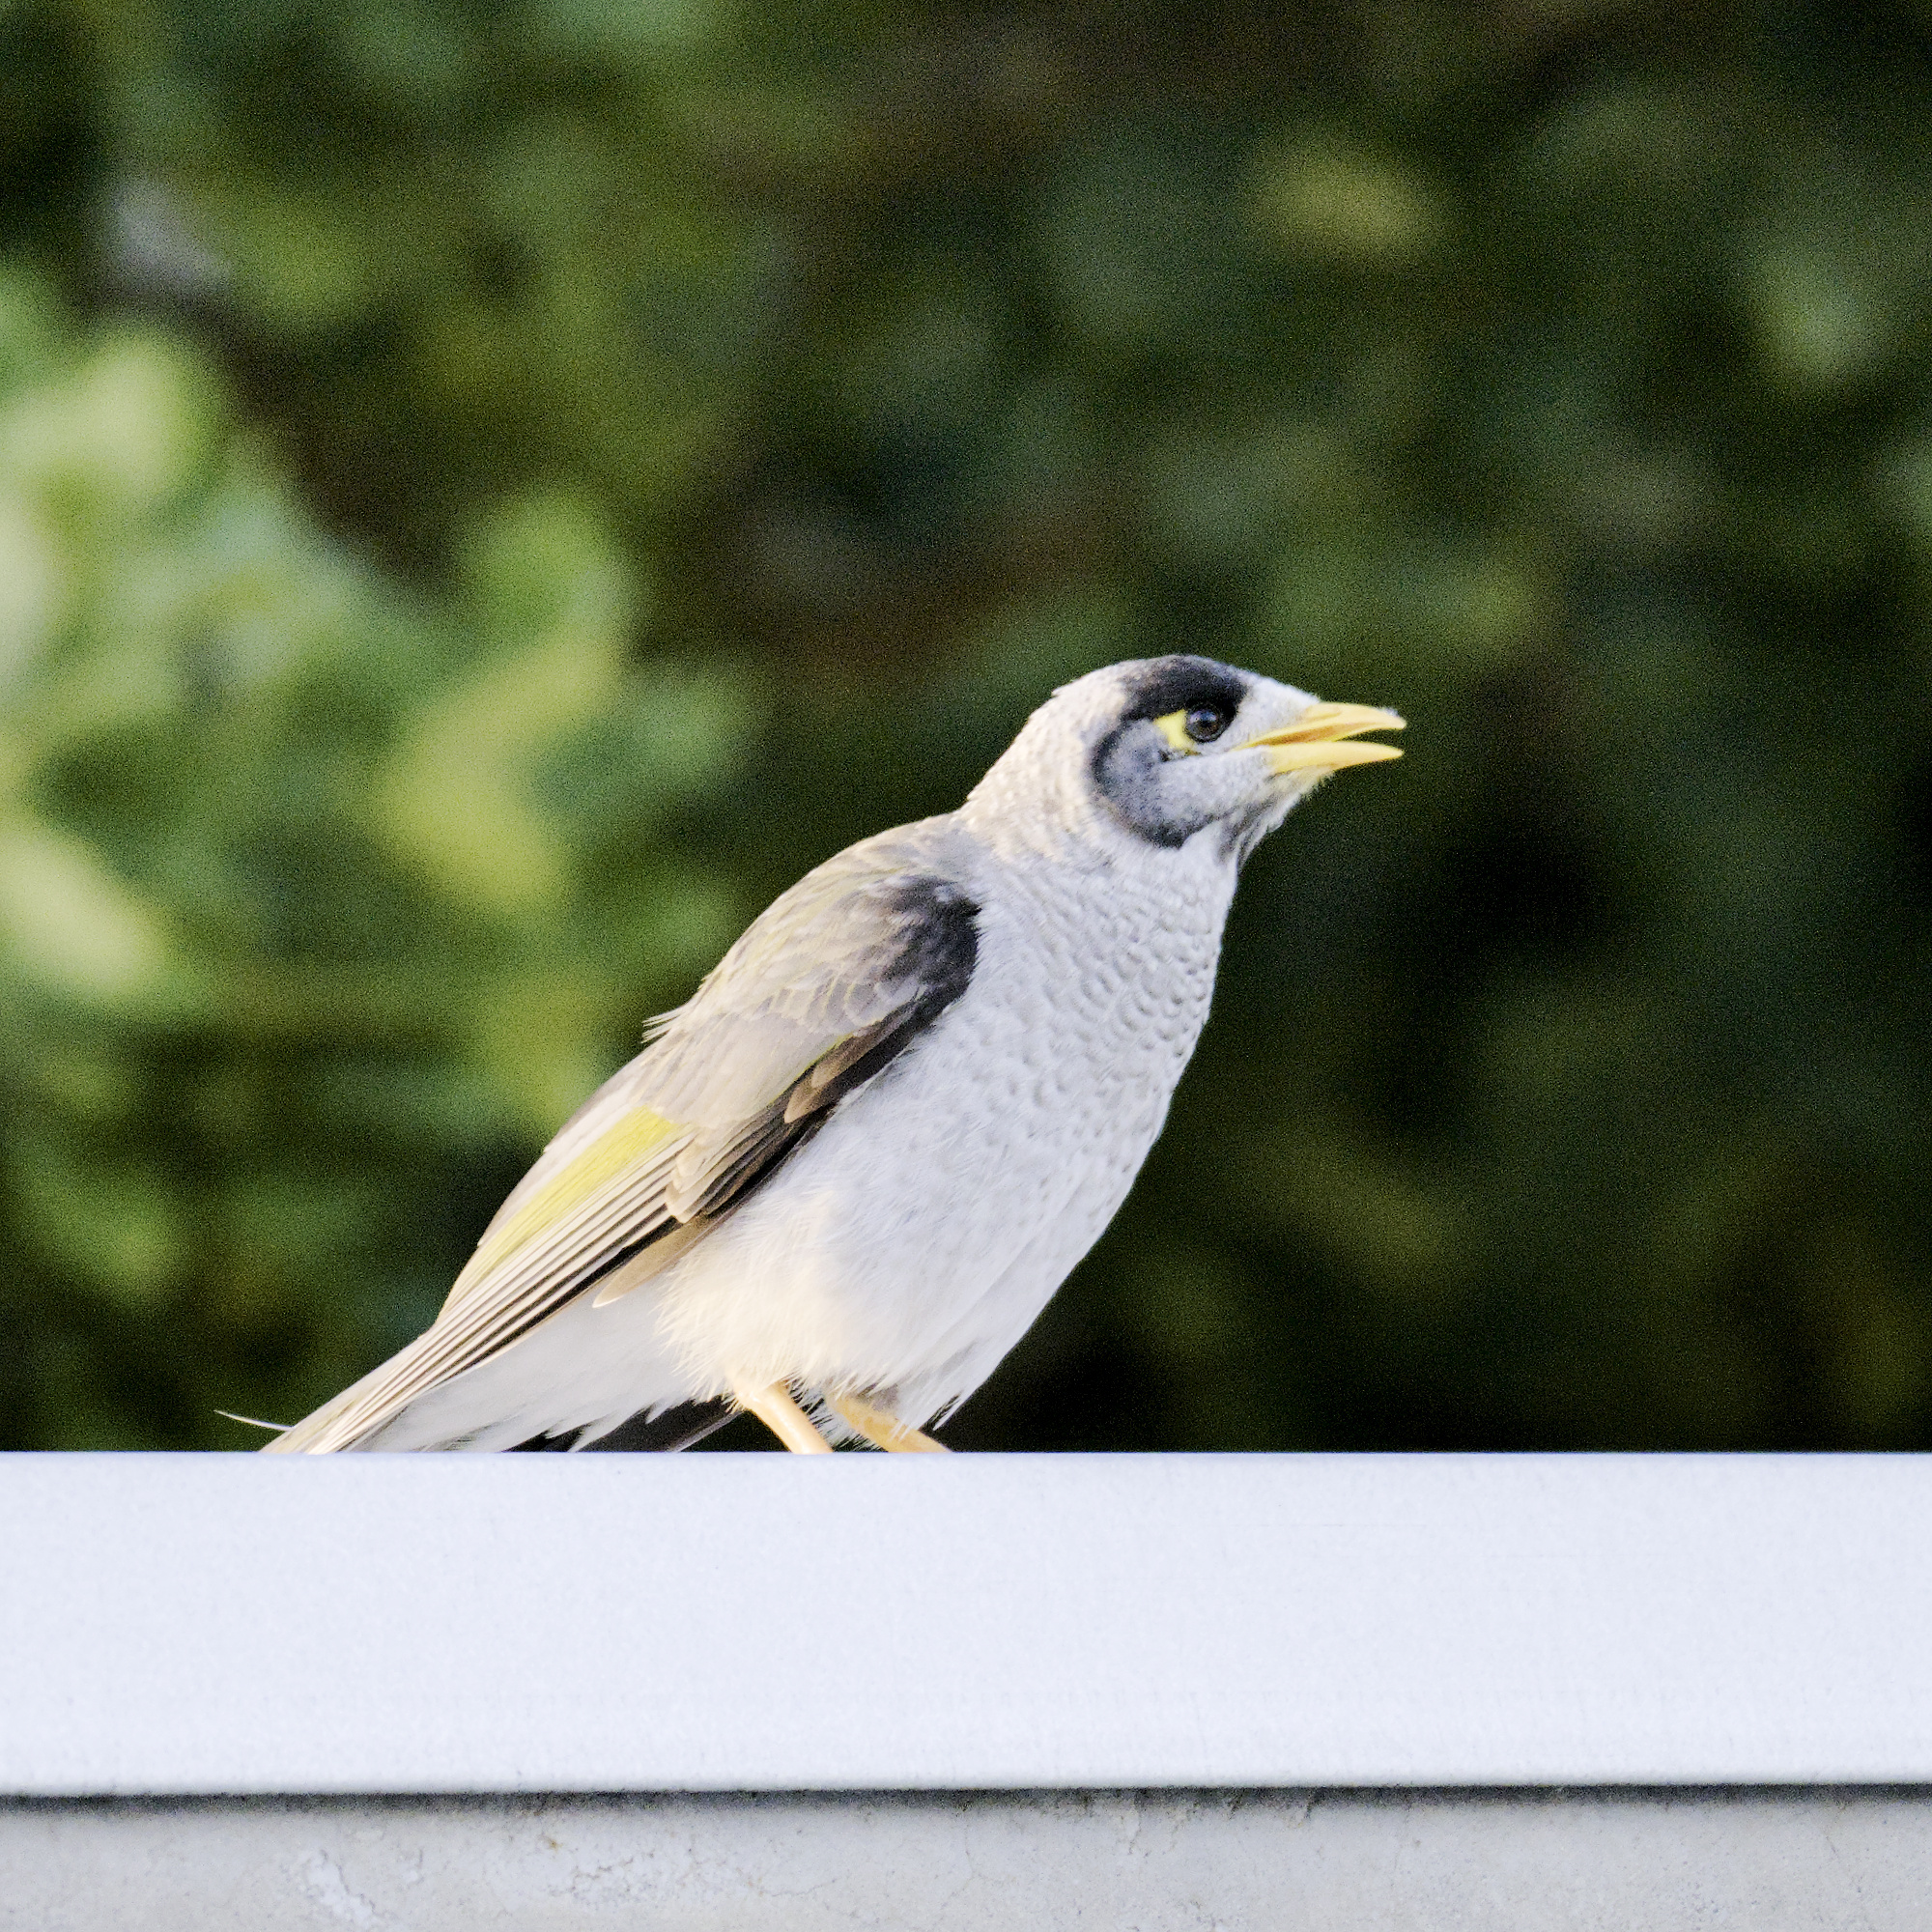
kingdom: Animalia
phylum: Chordata
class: Aves
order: Passeriformes
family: Meliphagidae
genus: Manorina
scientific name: Manorina melanocephala
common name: Noisy miner
